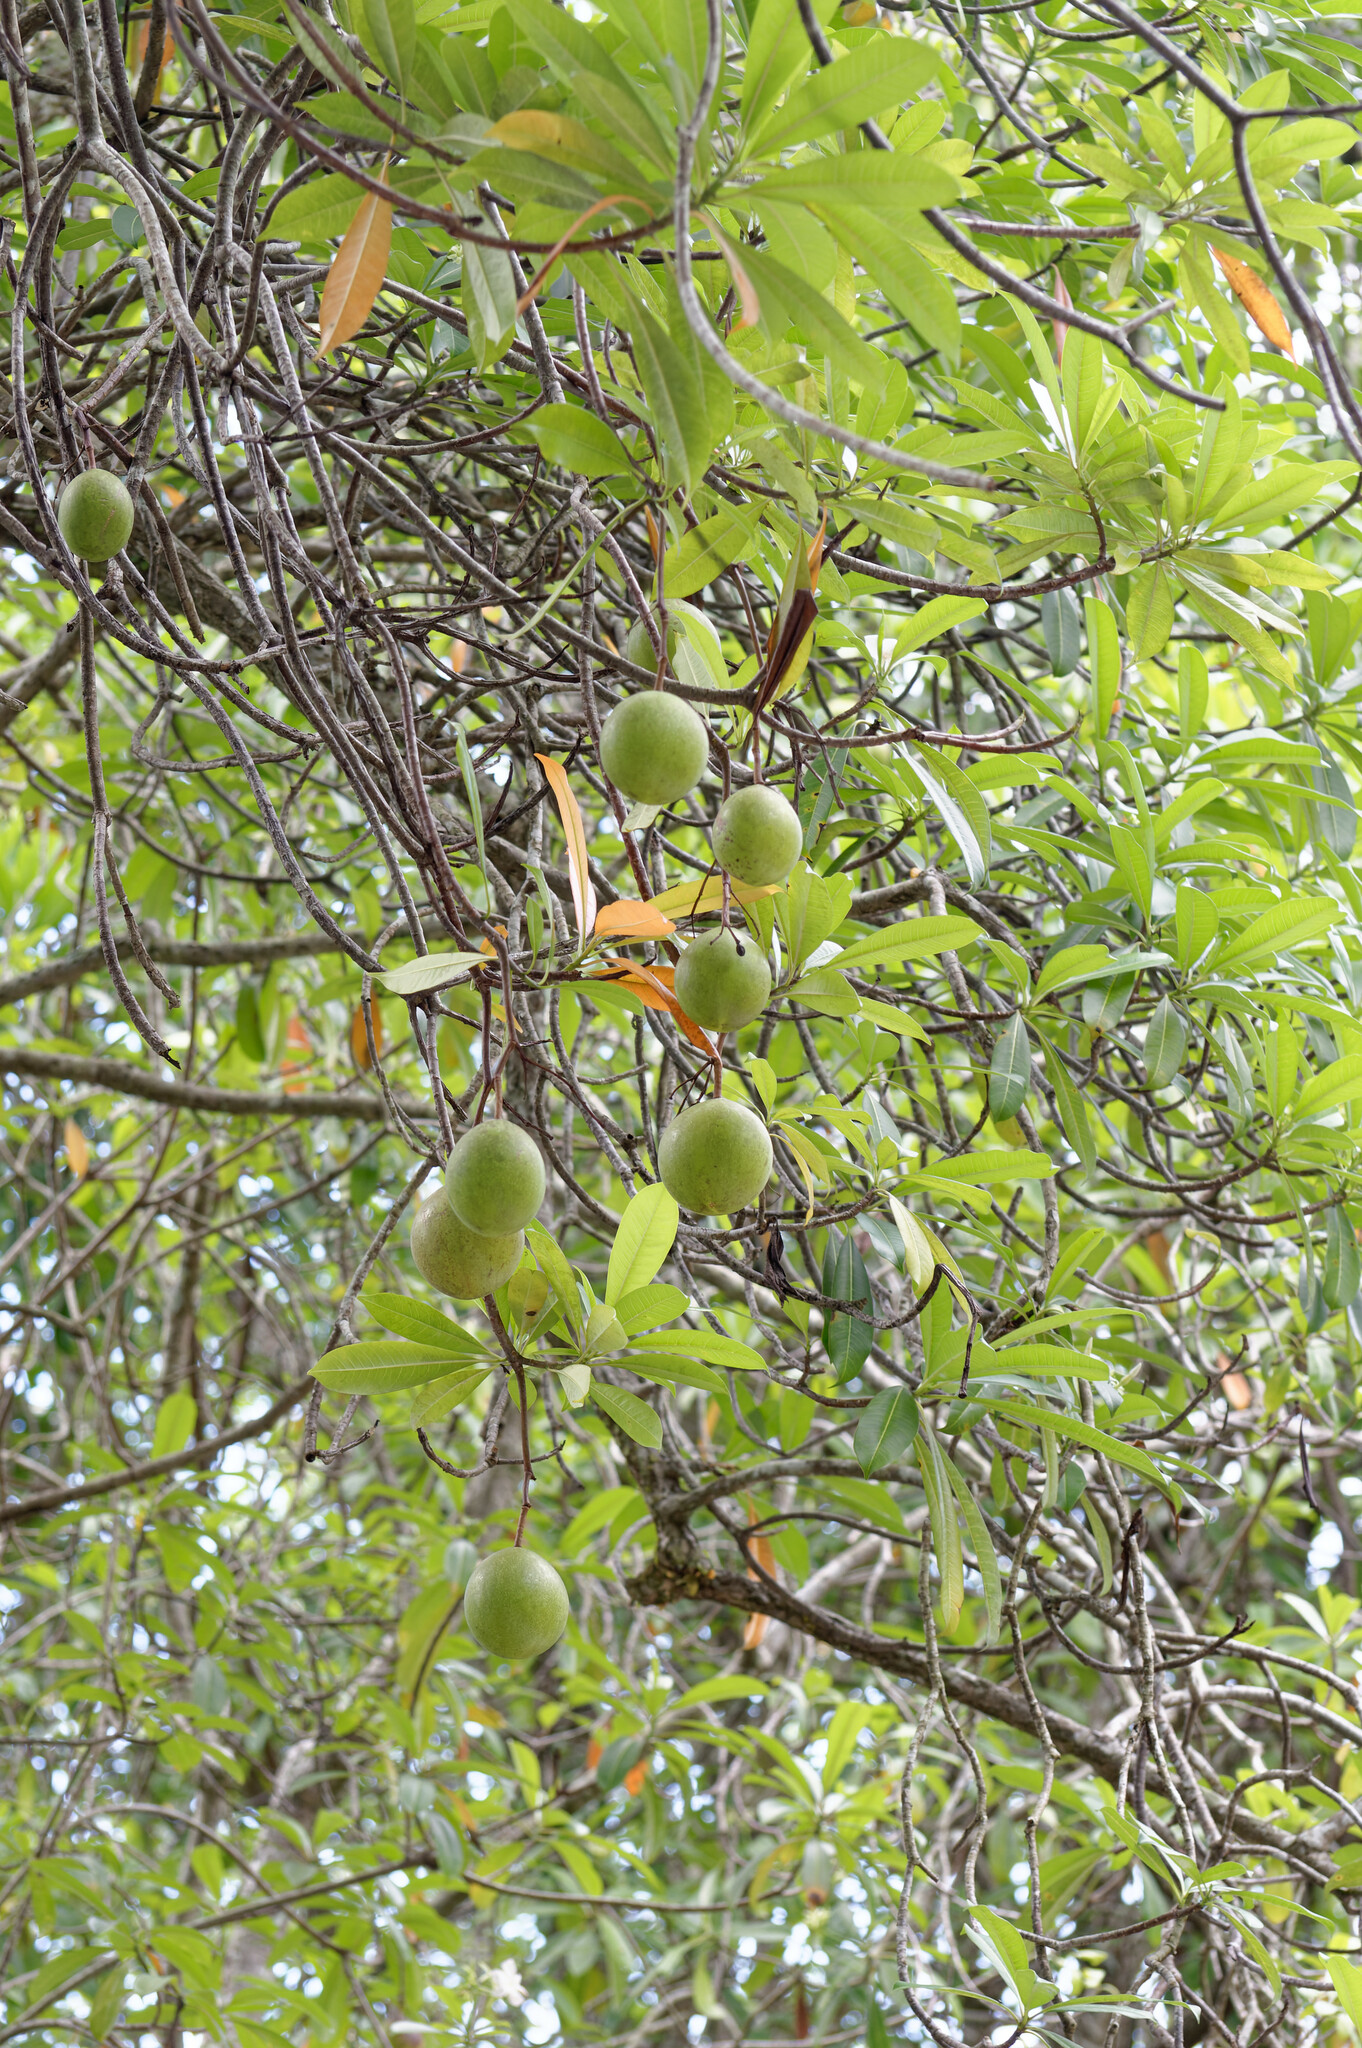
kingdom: Plantae
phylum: Tracheophyta
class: Magnoliopsida
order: Gentianales
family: Apocynaceae
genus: Cerbera
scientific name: Cerbera odollam
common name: Pong-pong
